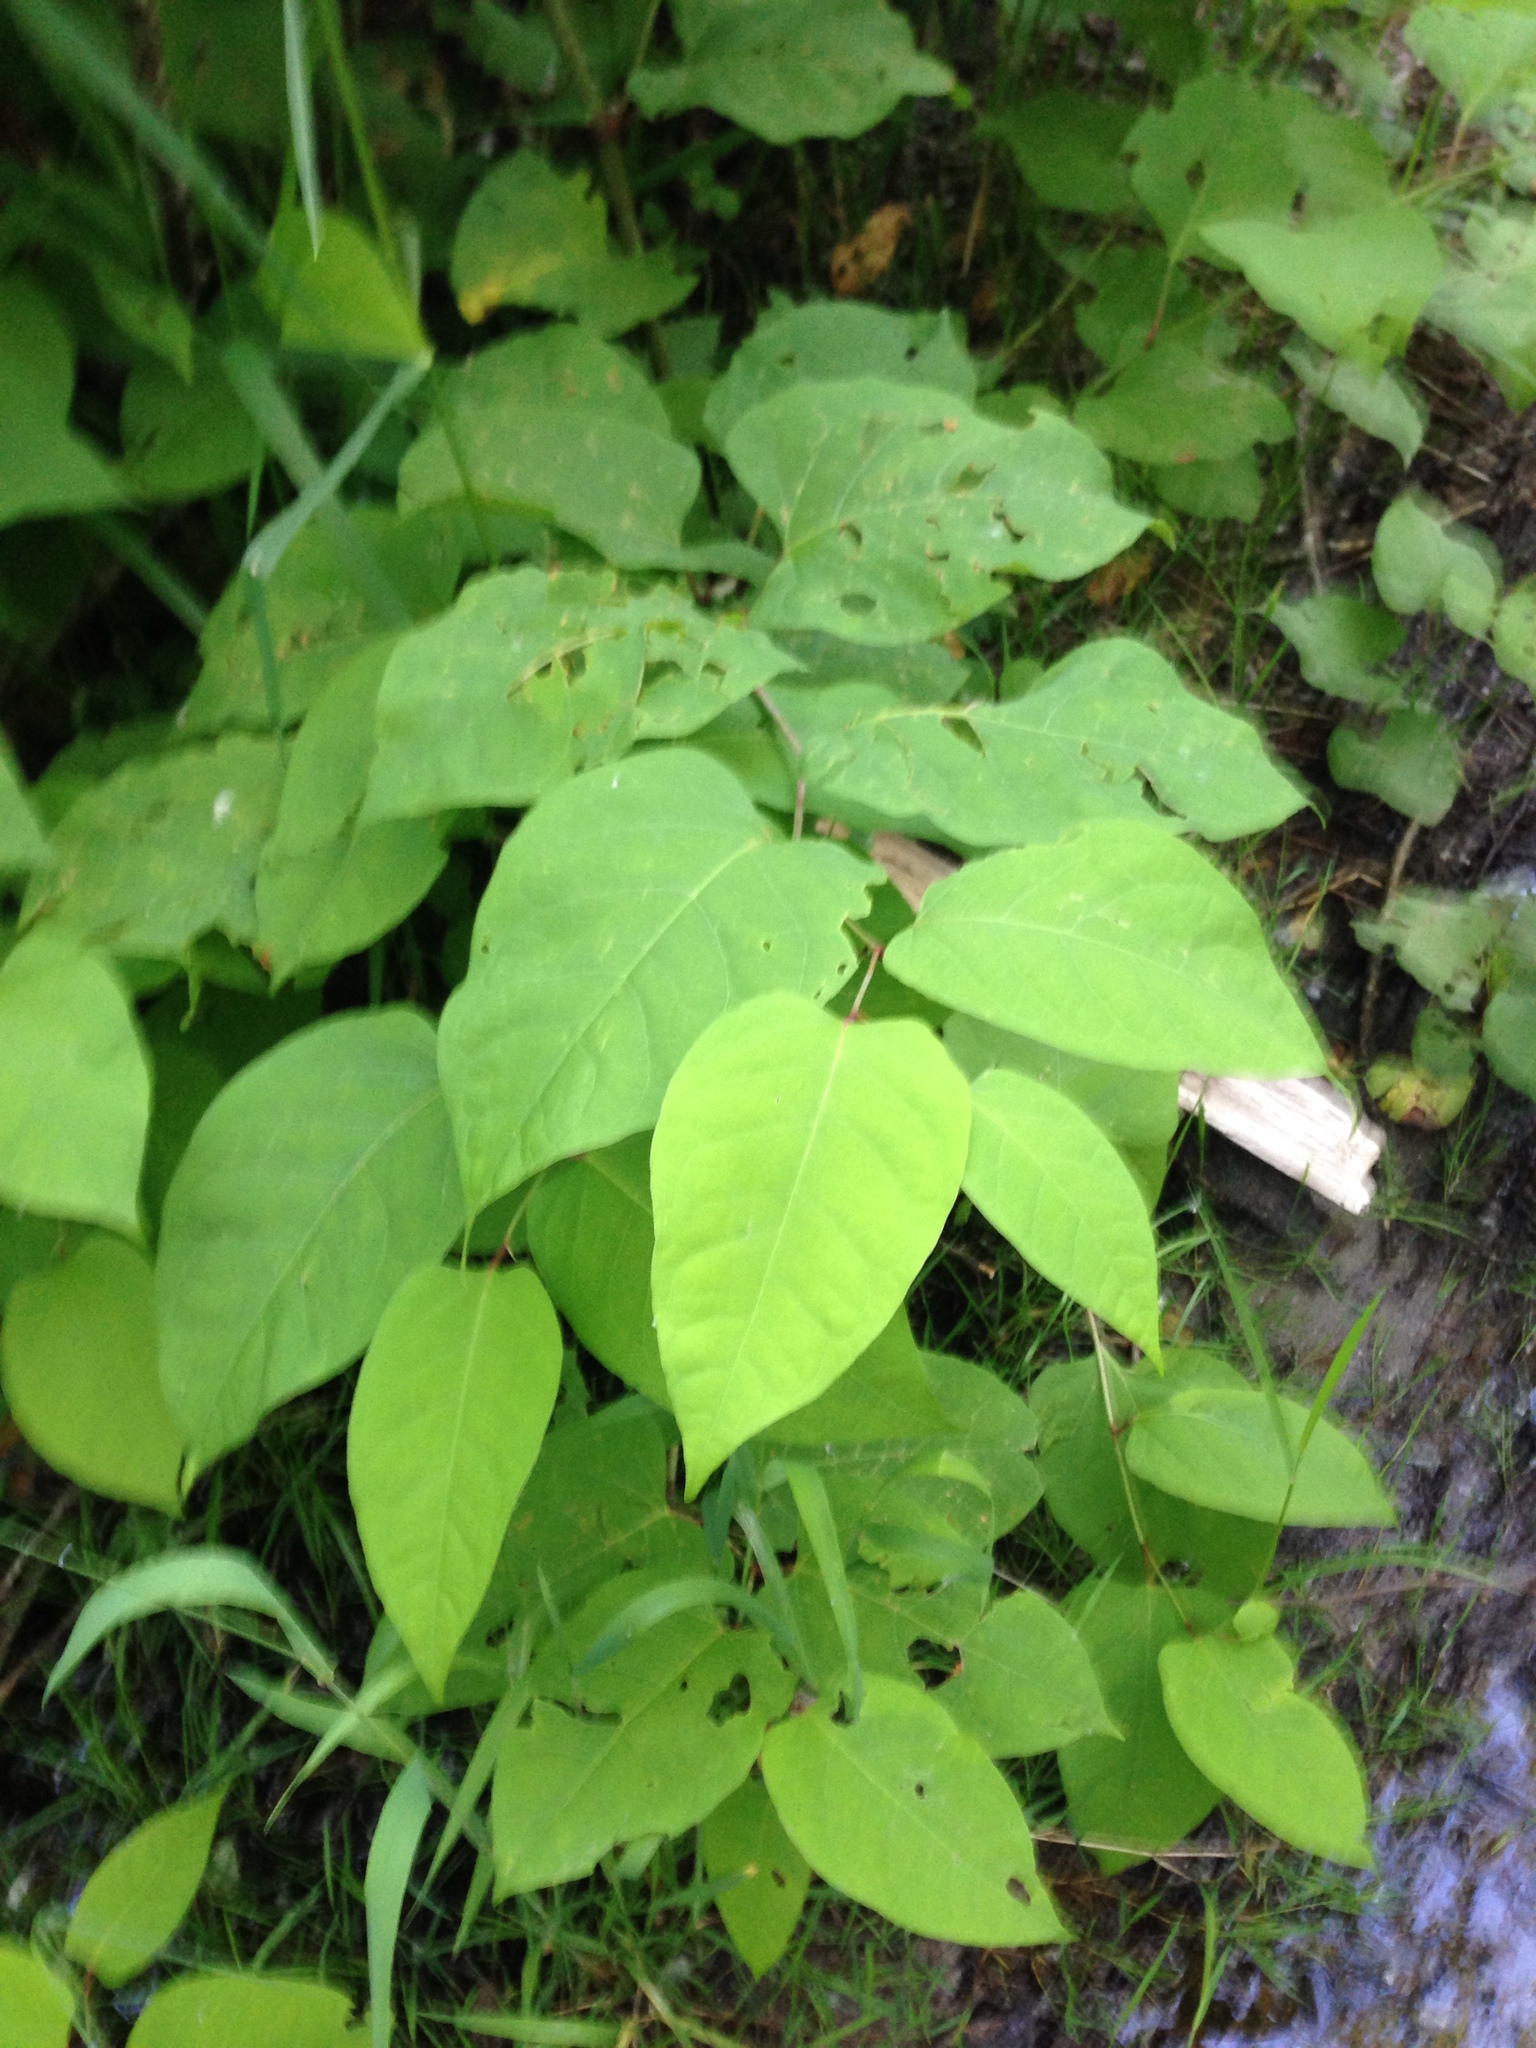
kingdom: Plantae
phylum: Tracheophyta
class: Magnoliopsida
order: Caryophyllales
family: Polygonaceae
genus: Reynoutria
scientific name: Reynoutria japonica
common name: Japanese knotweed
